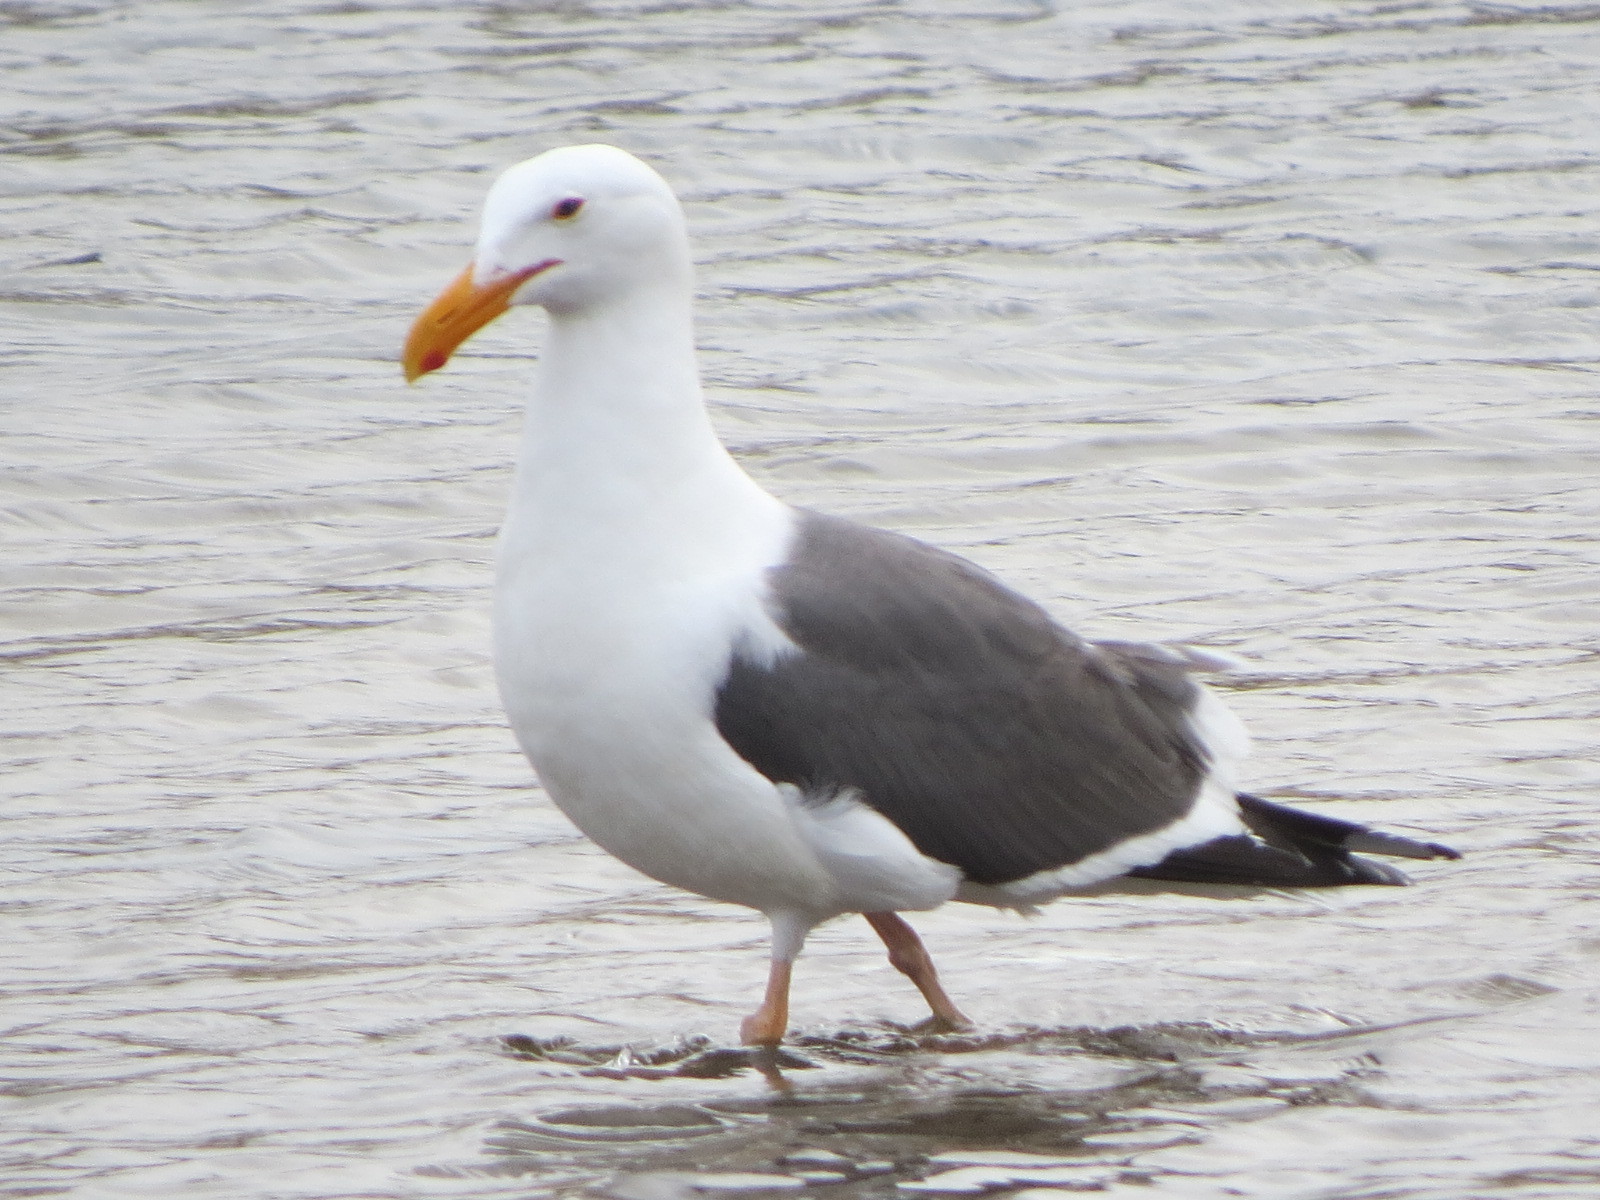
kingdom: Animalia
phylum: Chordata
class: Aves
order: Charadriiformes
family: Laridae
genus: Larus
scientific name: Larus occidentalis
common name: Western gull
